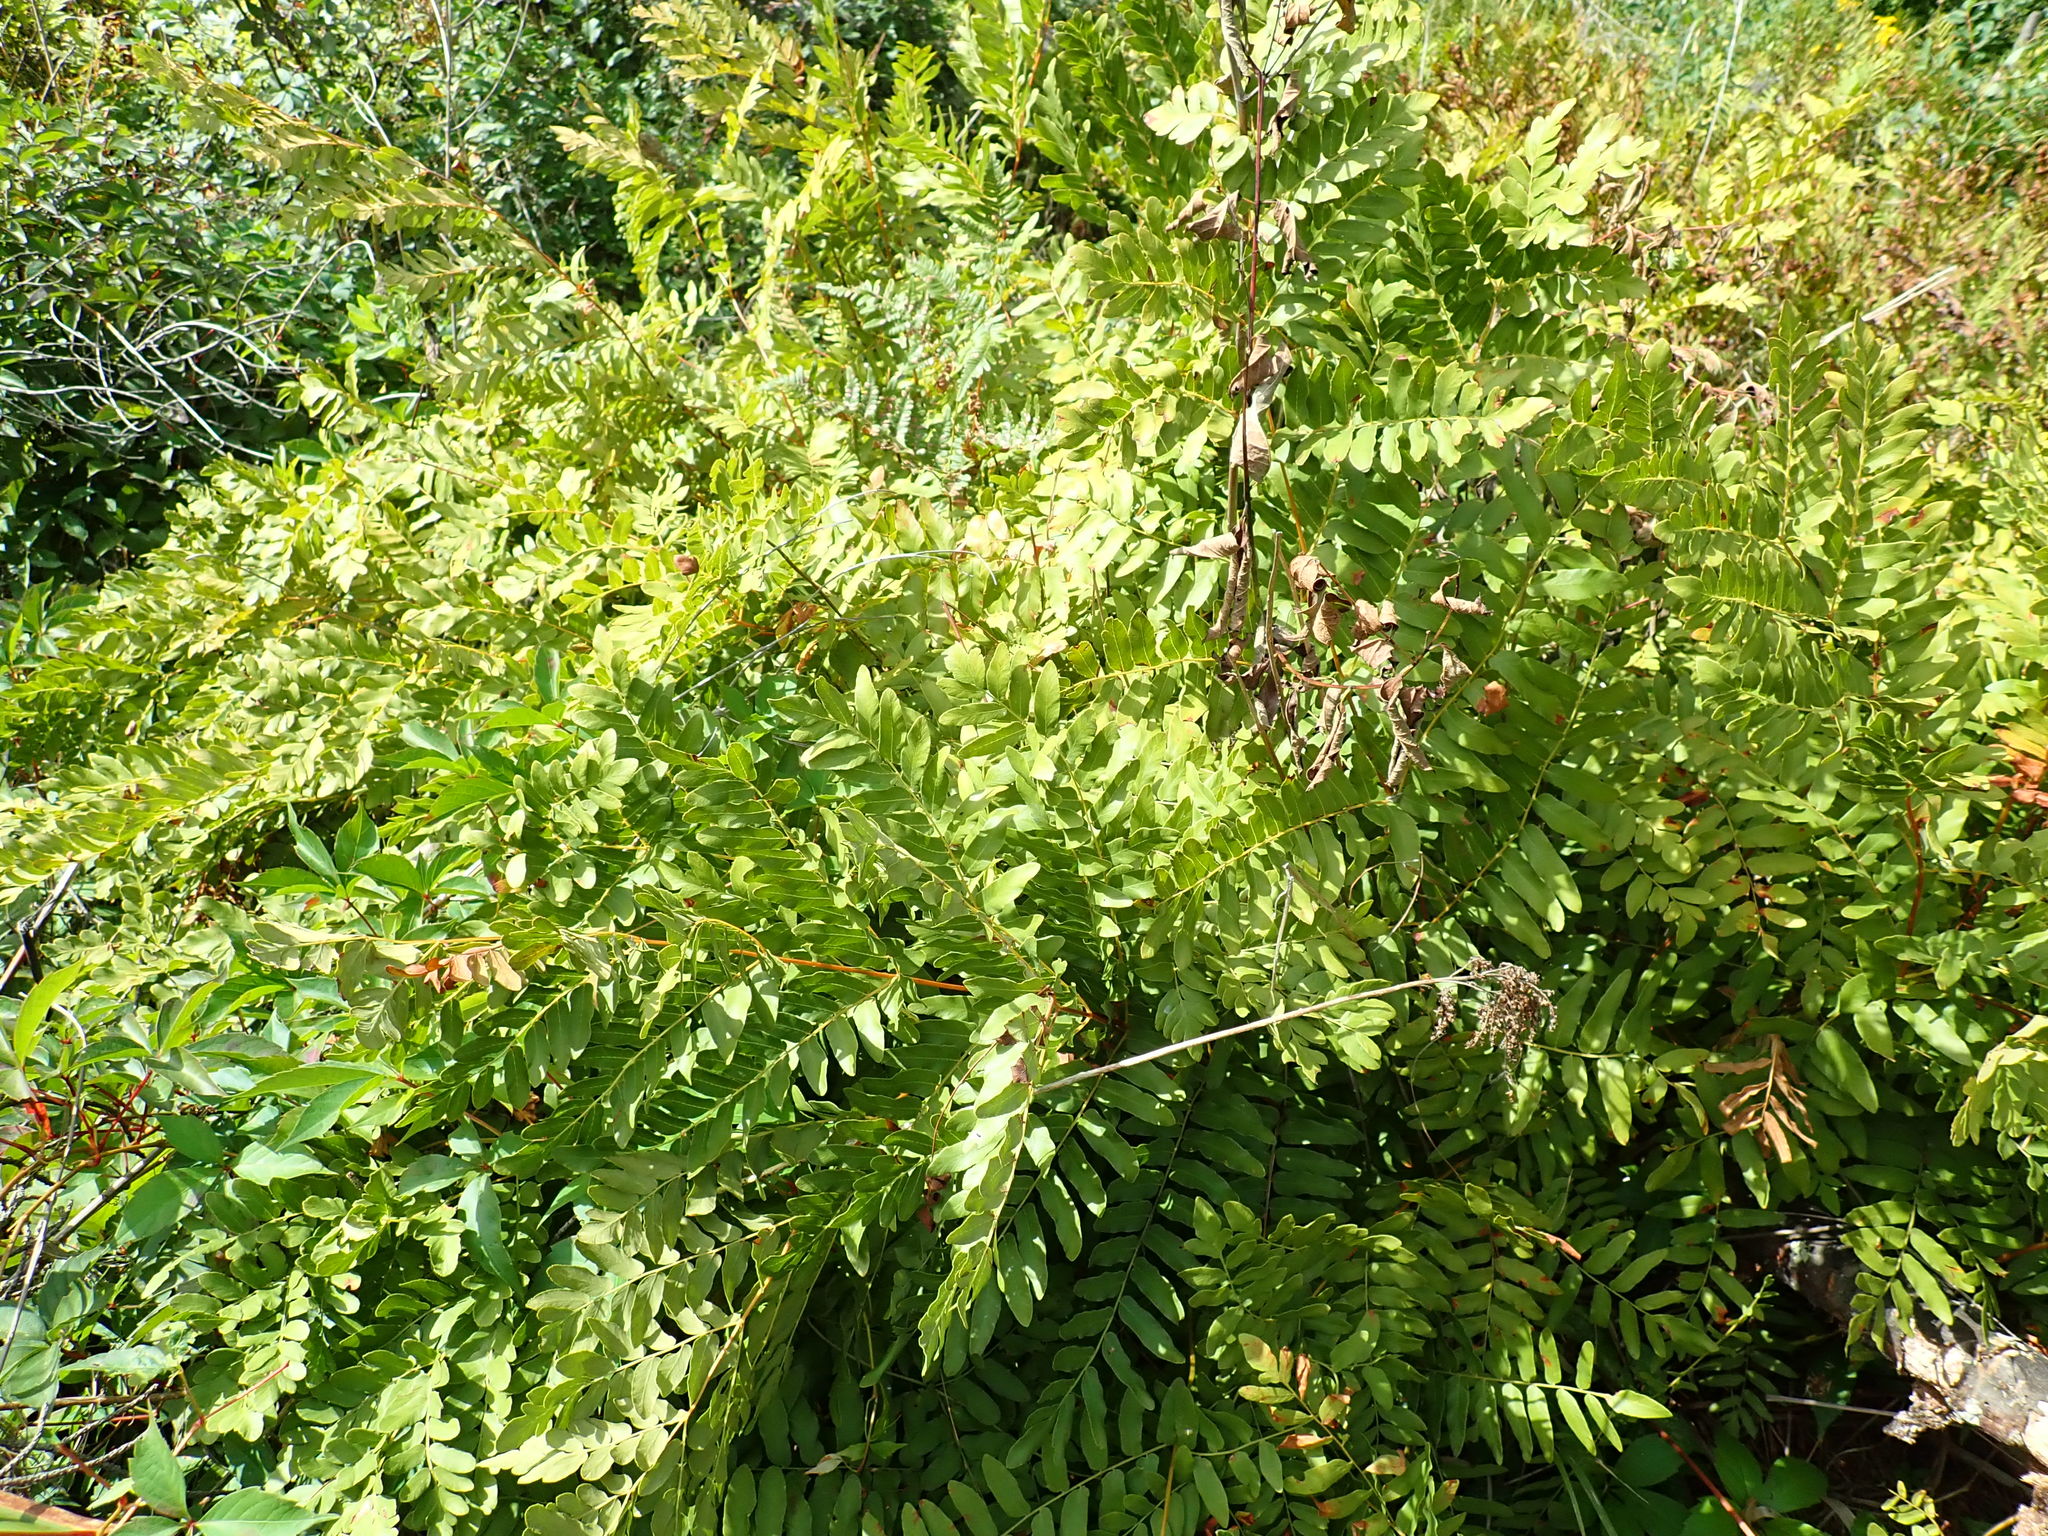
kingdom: Plantae
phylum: Tracheophyta
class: Polypodiopsida
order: Osmundales
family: Osmundaceae
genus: Osmunda
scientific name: Osmunda spectabilis
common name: American royal fern
